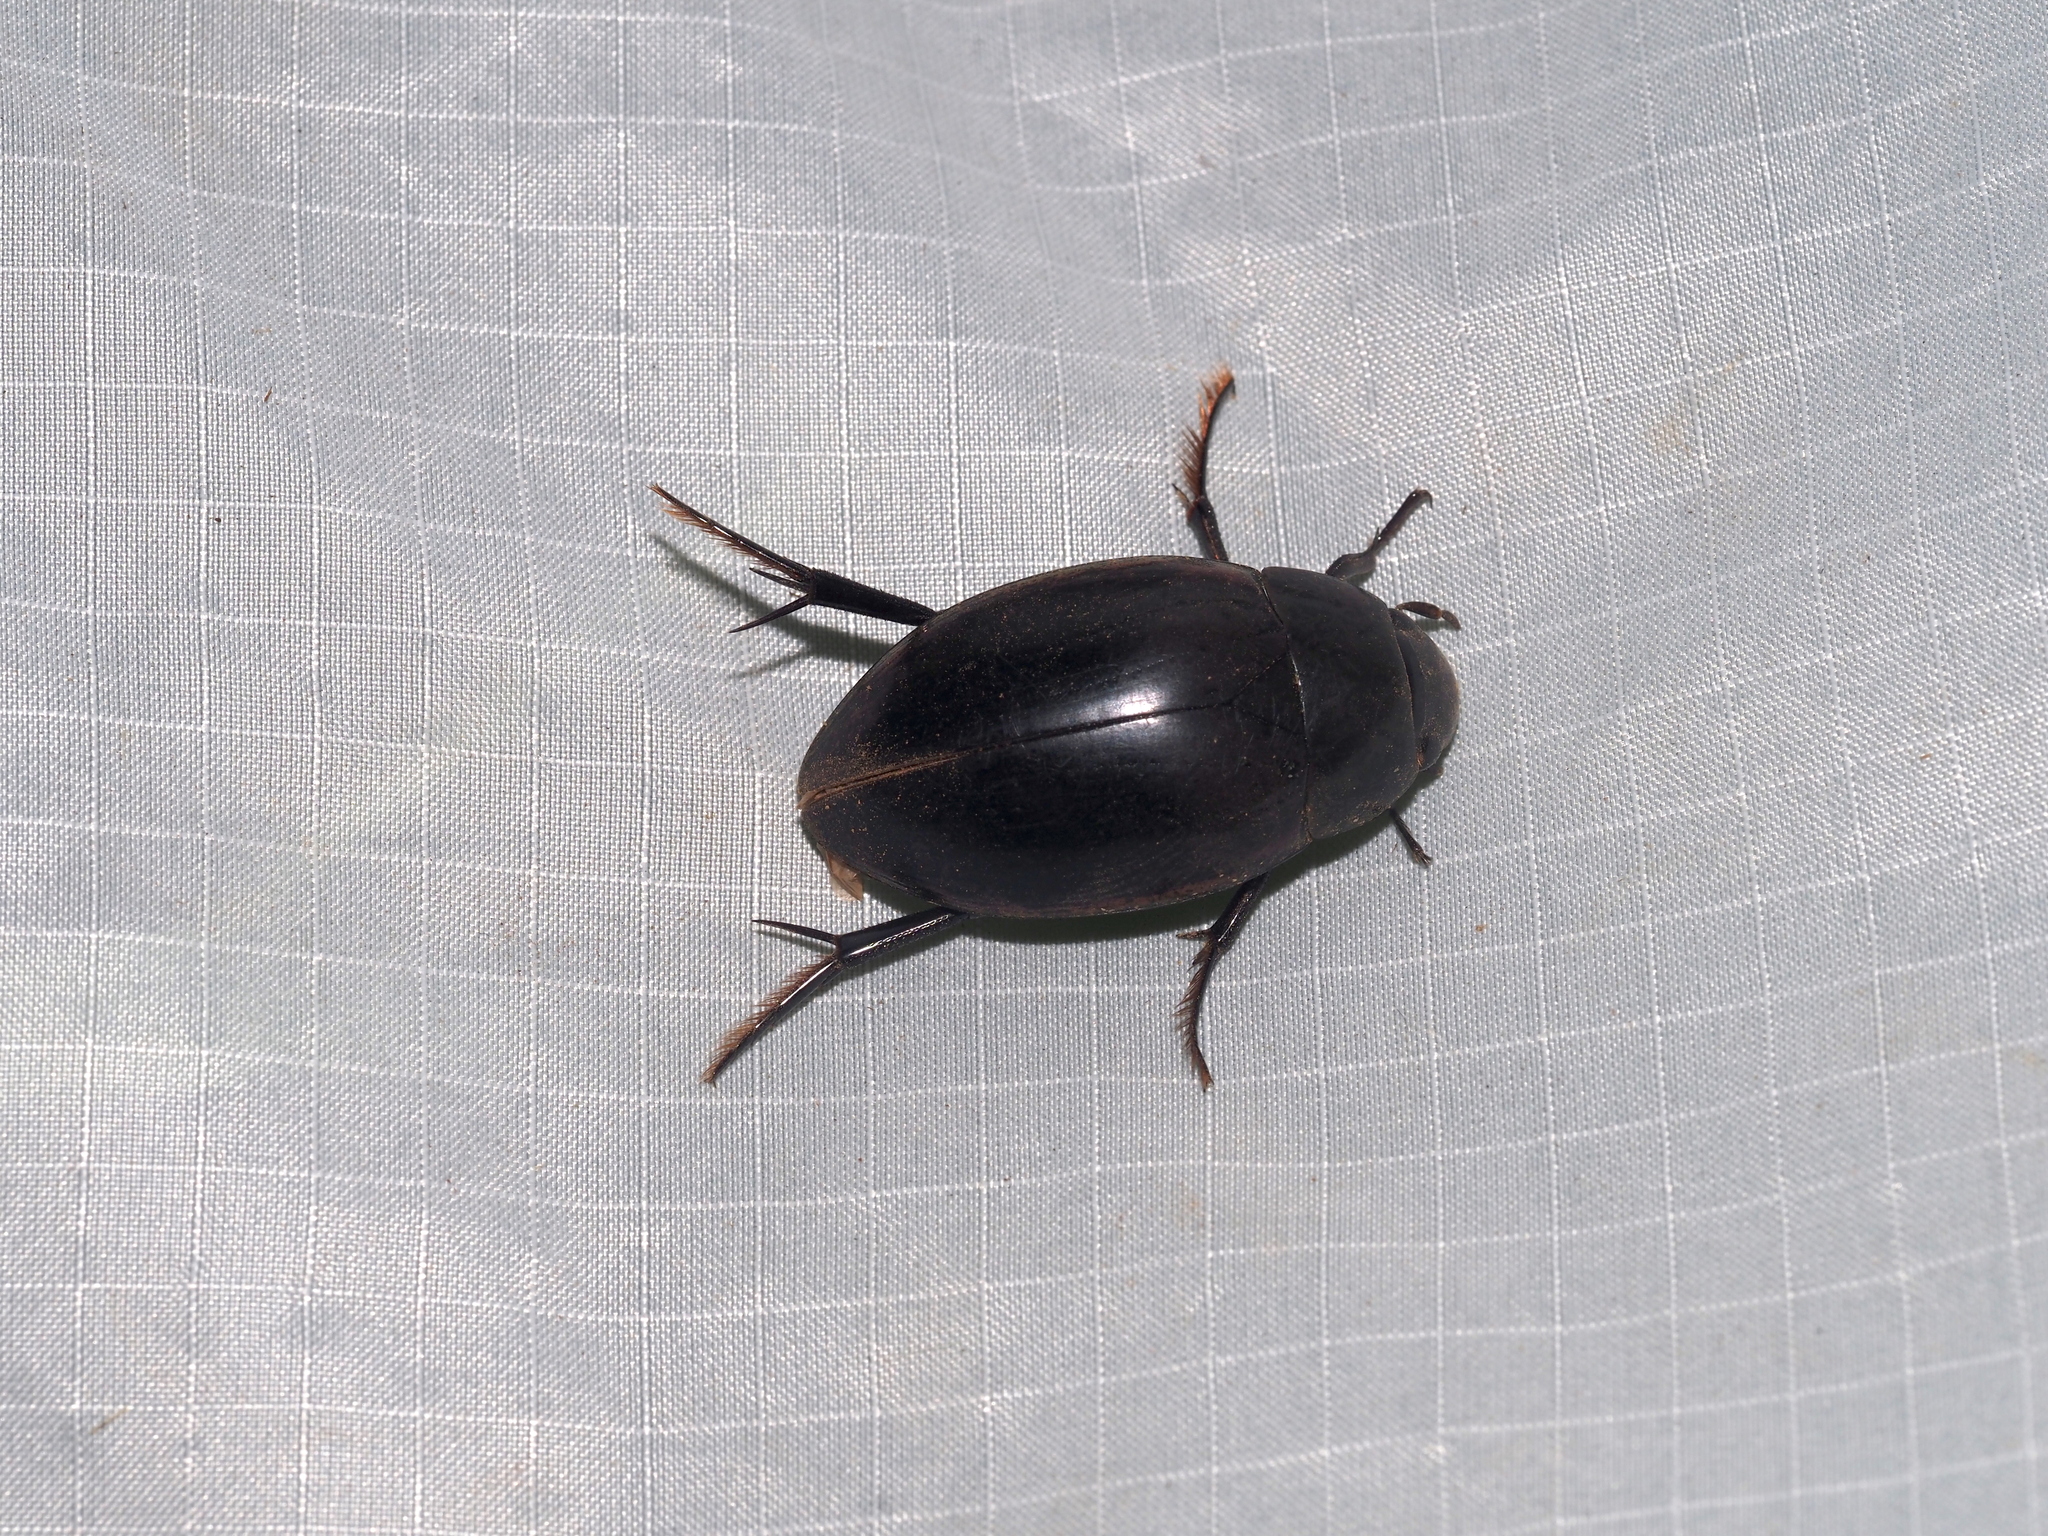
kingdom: Animalia
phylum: Arthropoda
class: Insecta
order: Coleoptera
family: Hydrophilidae
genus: Hydrophilus
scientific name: Hydrophilus ovatus
